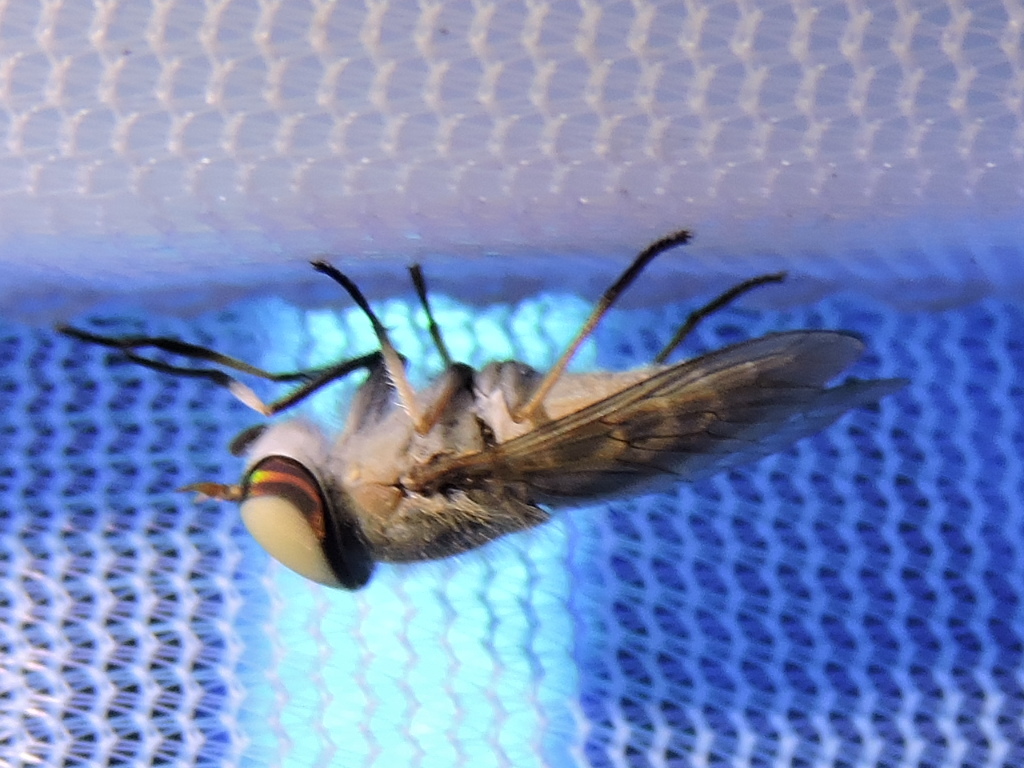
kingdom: Animalia
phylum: Arthropoda
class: Insecta
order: Diptera
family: Tabanidae
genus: Tabanus
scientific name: Tabanus lineola
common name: Striped horse fly
